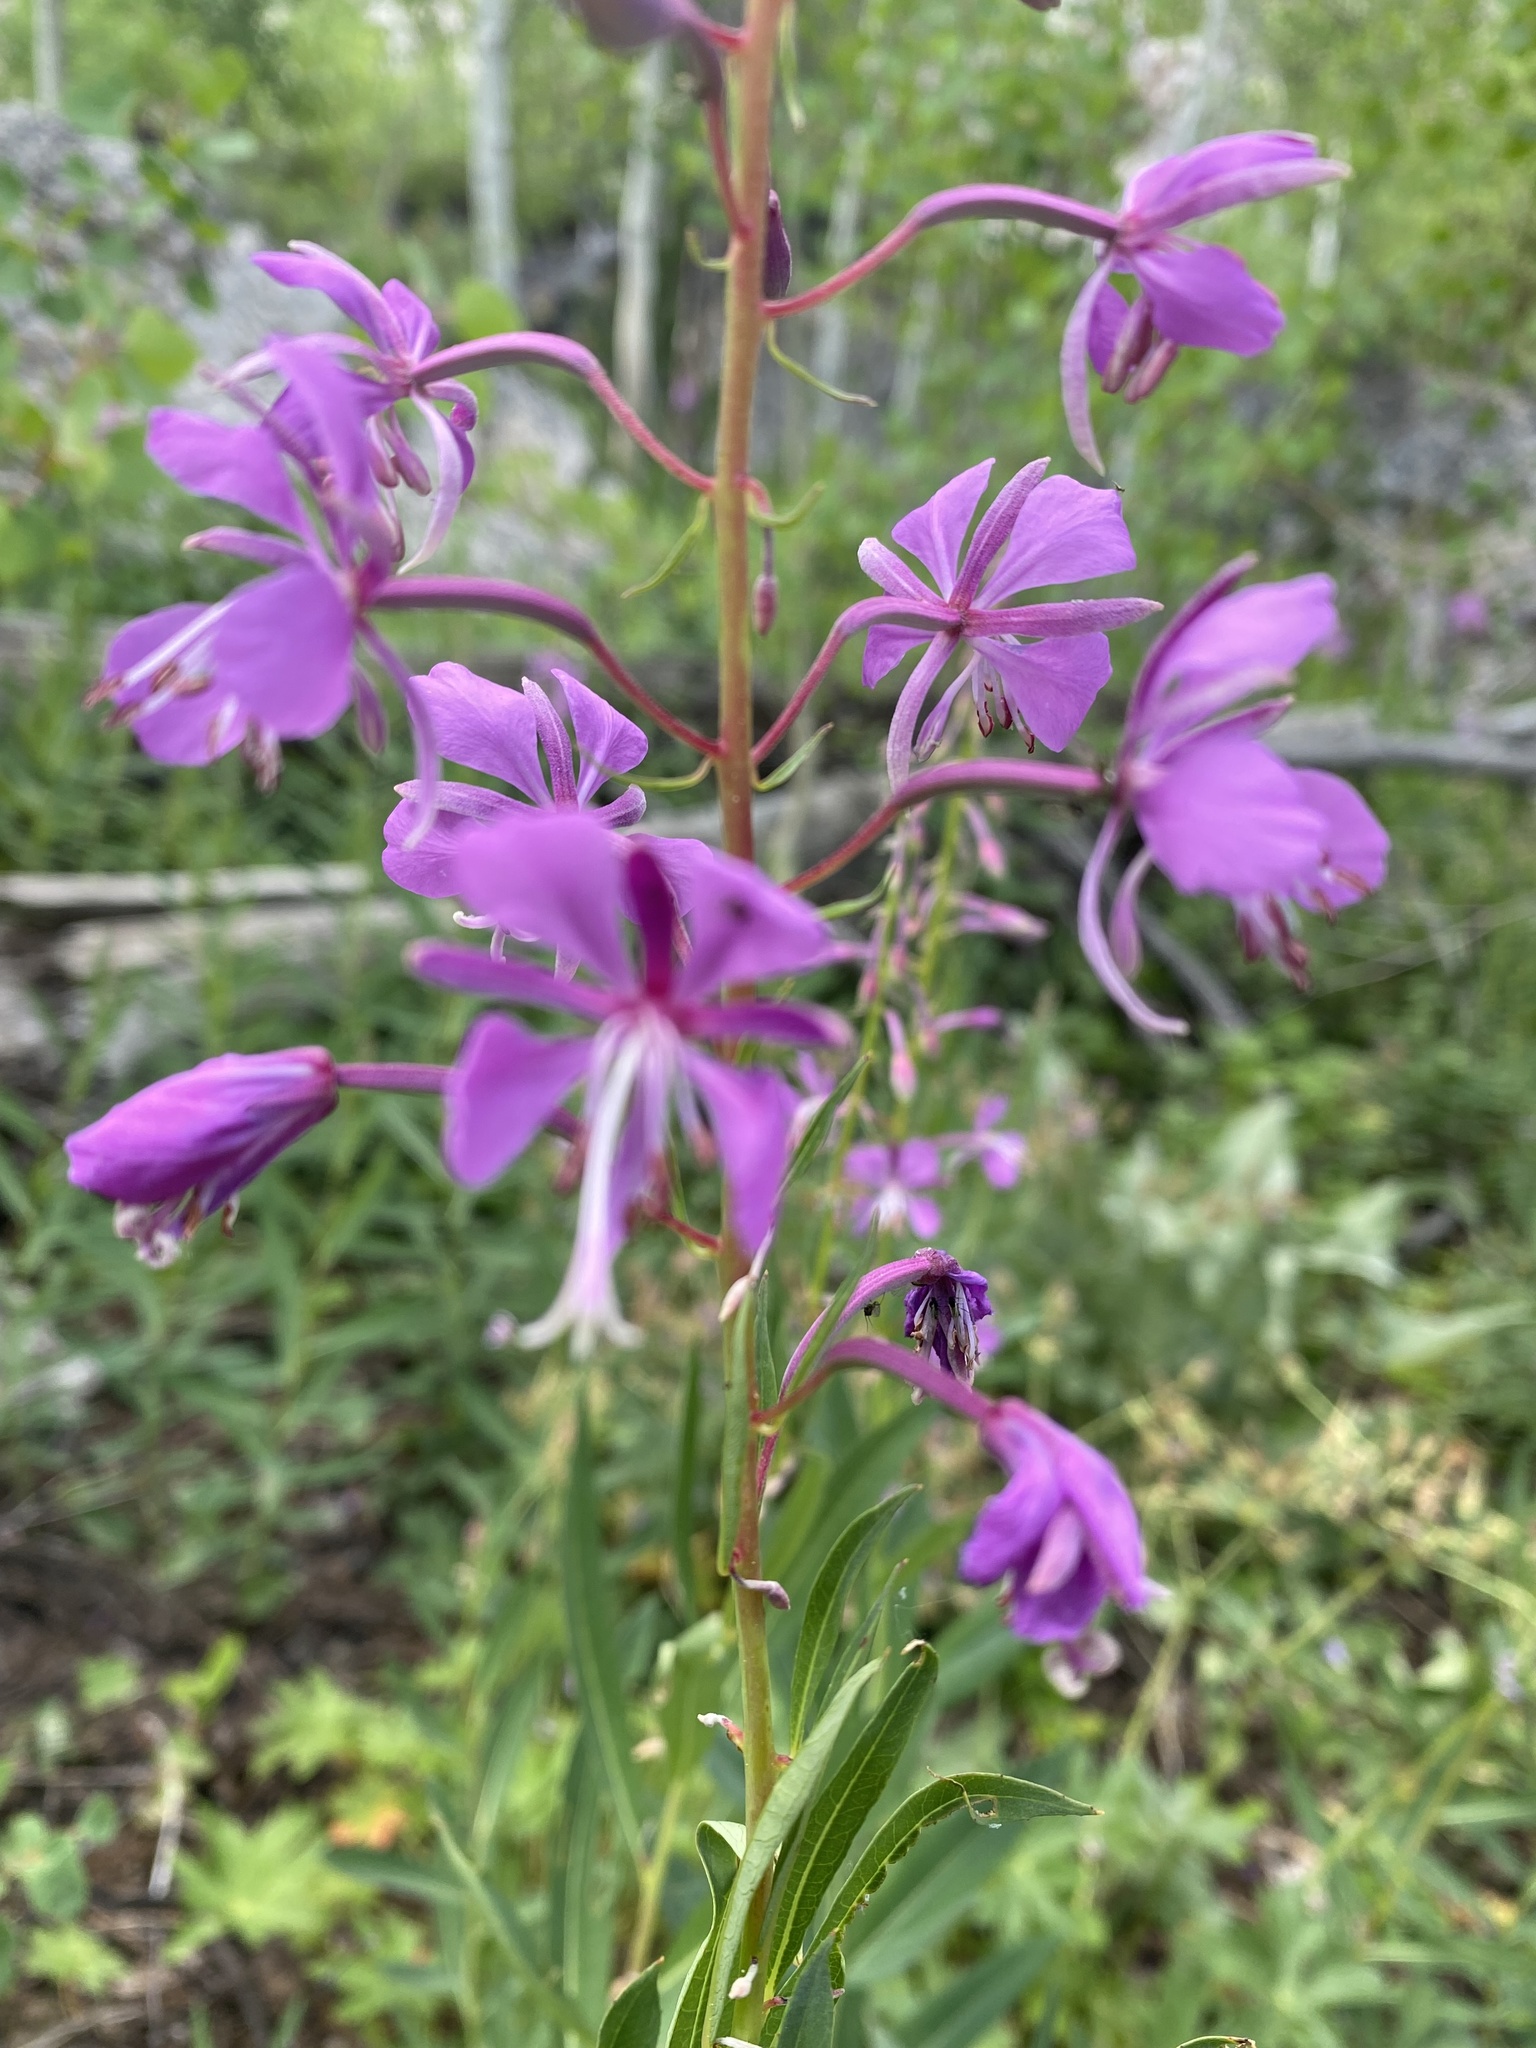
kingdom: Plantae
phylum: Tracheophyta
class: Magnoliopsida
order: Myrtales
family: Onagraceae
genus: Chamaenerion
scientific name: Chamaenerion angustifolium
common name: Fireweed
